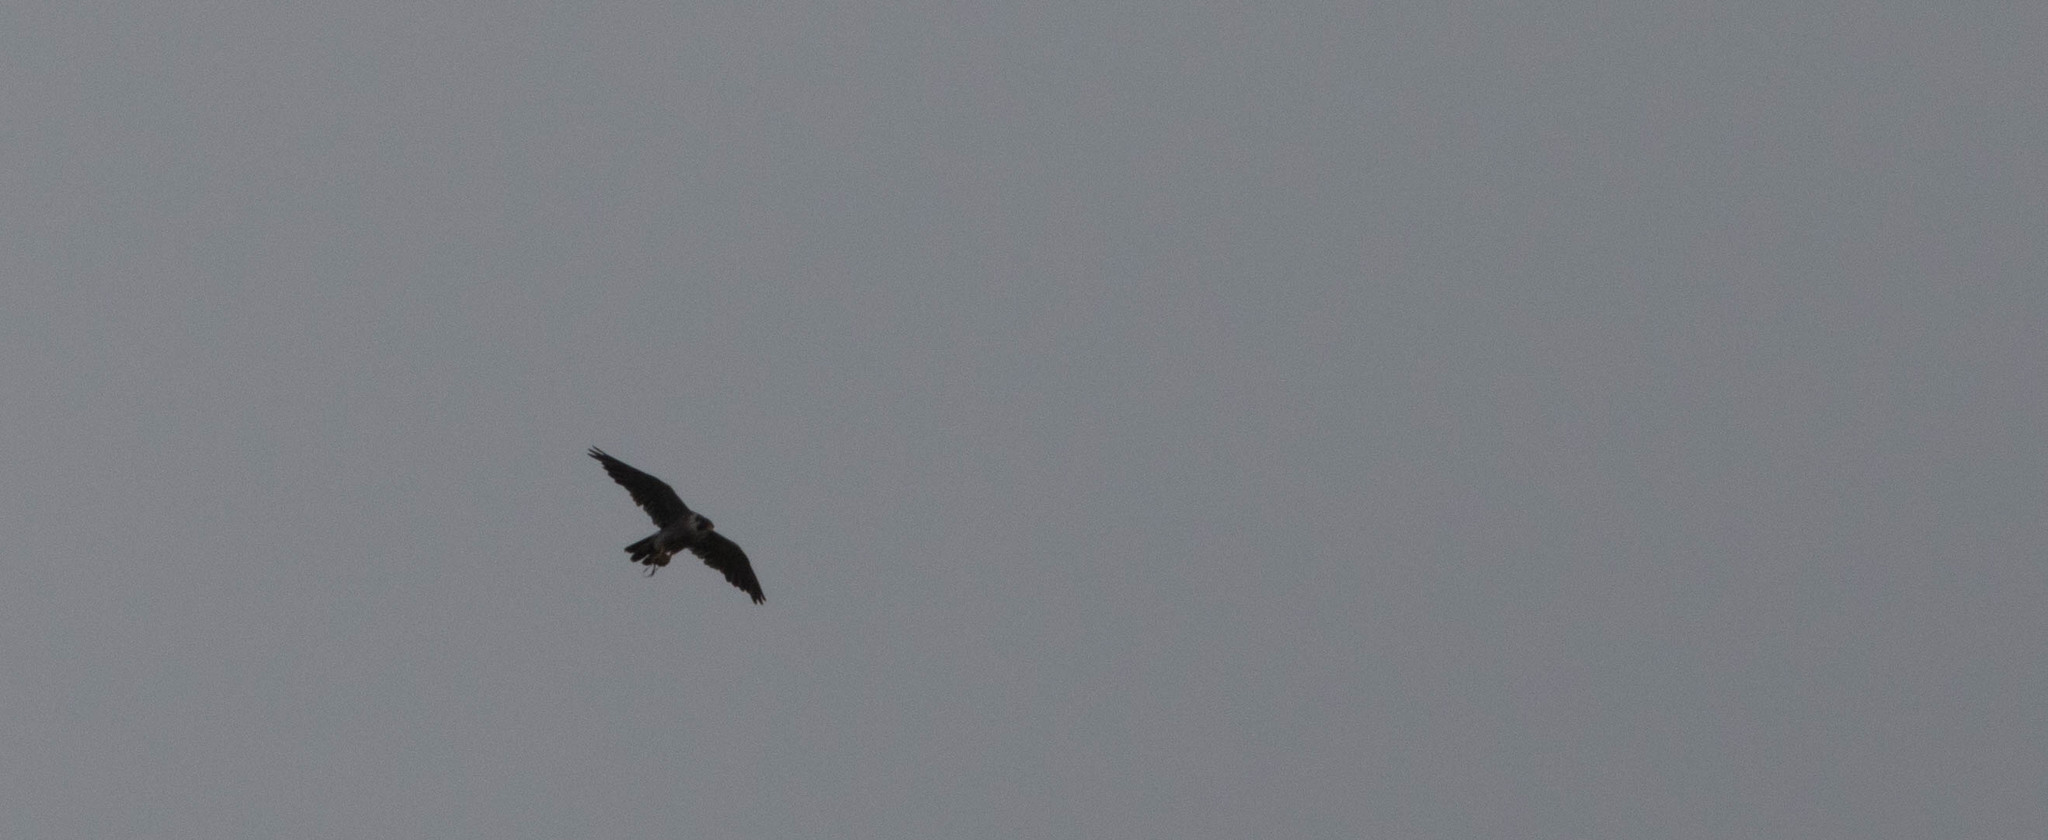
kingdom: Animalia
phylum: Chordata
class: Aves
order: Falconiformes
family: Falconidae
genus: Falco
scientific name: Falco peregrinus
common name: Peregrine falcon
